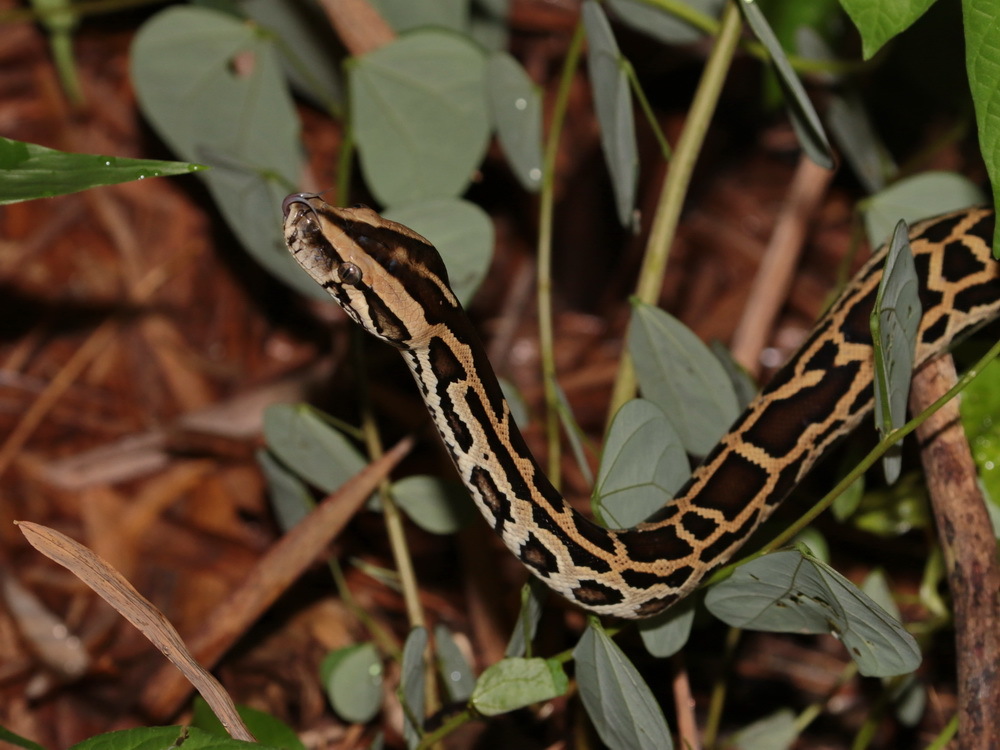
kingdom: Animalia
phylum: Chordata
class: Squamata
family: Pythonidae
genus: Python
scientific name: Python bivittatus
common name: Burmese python
